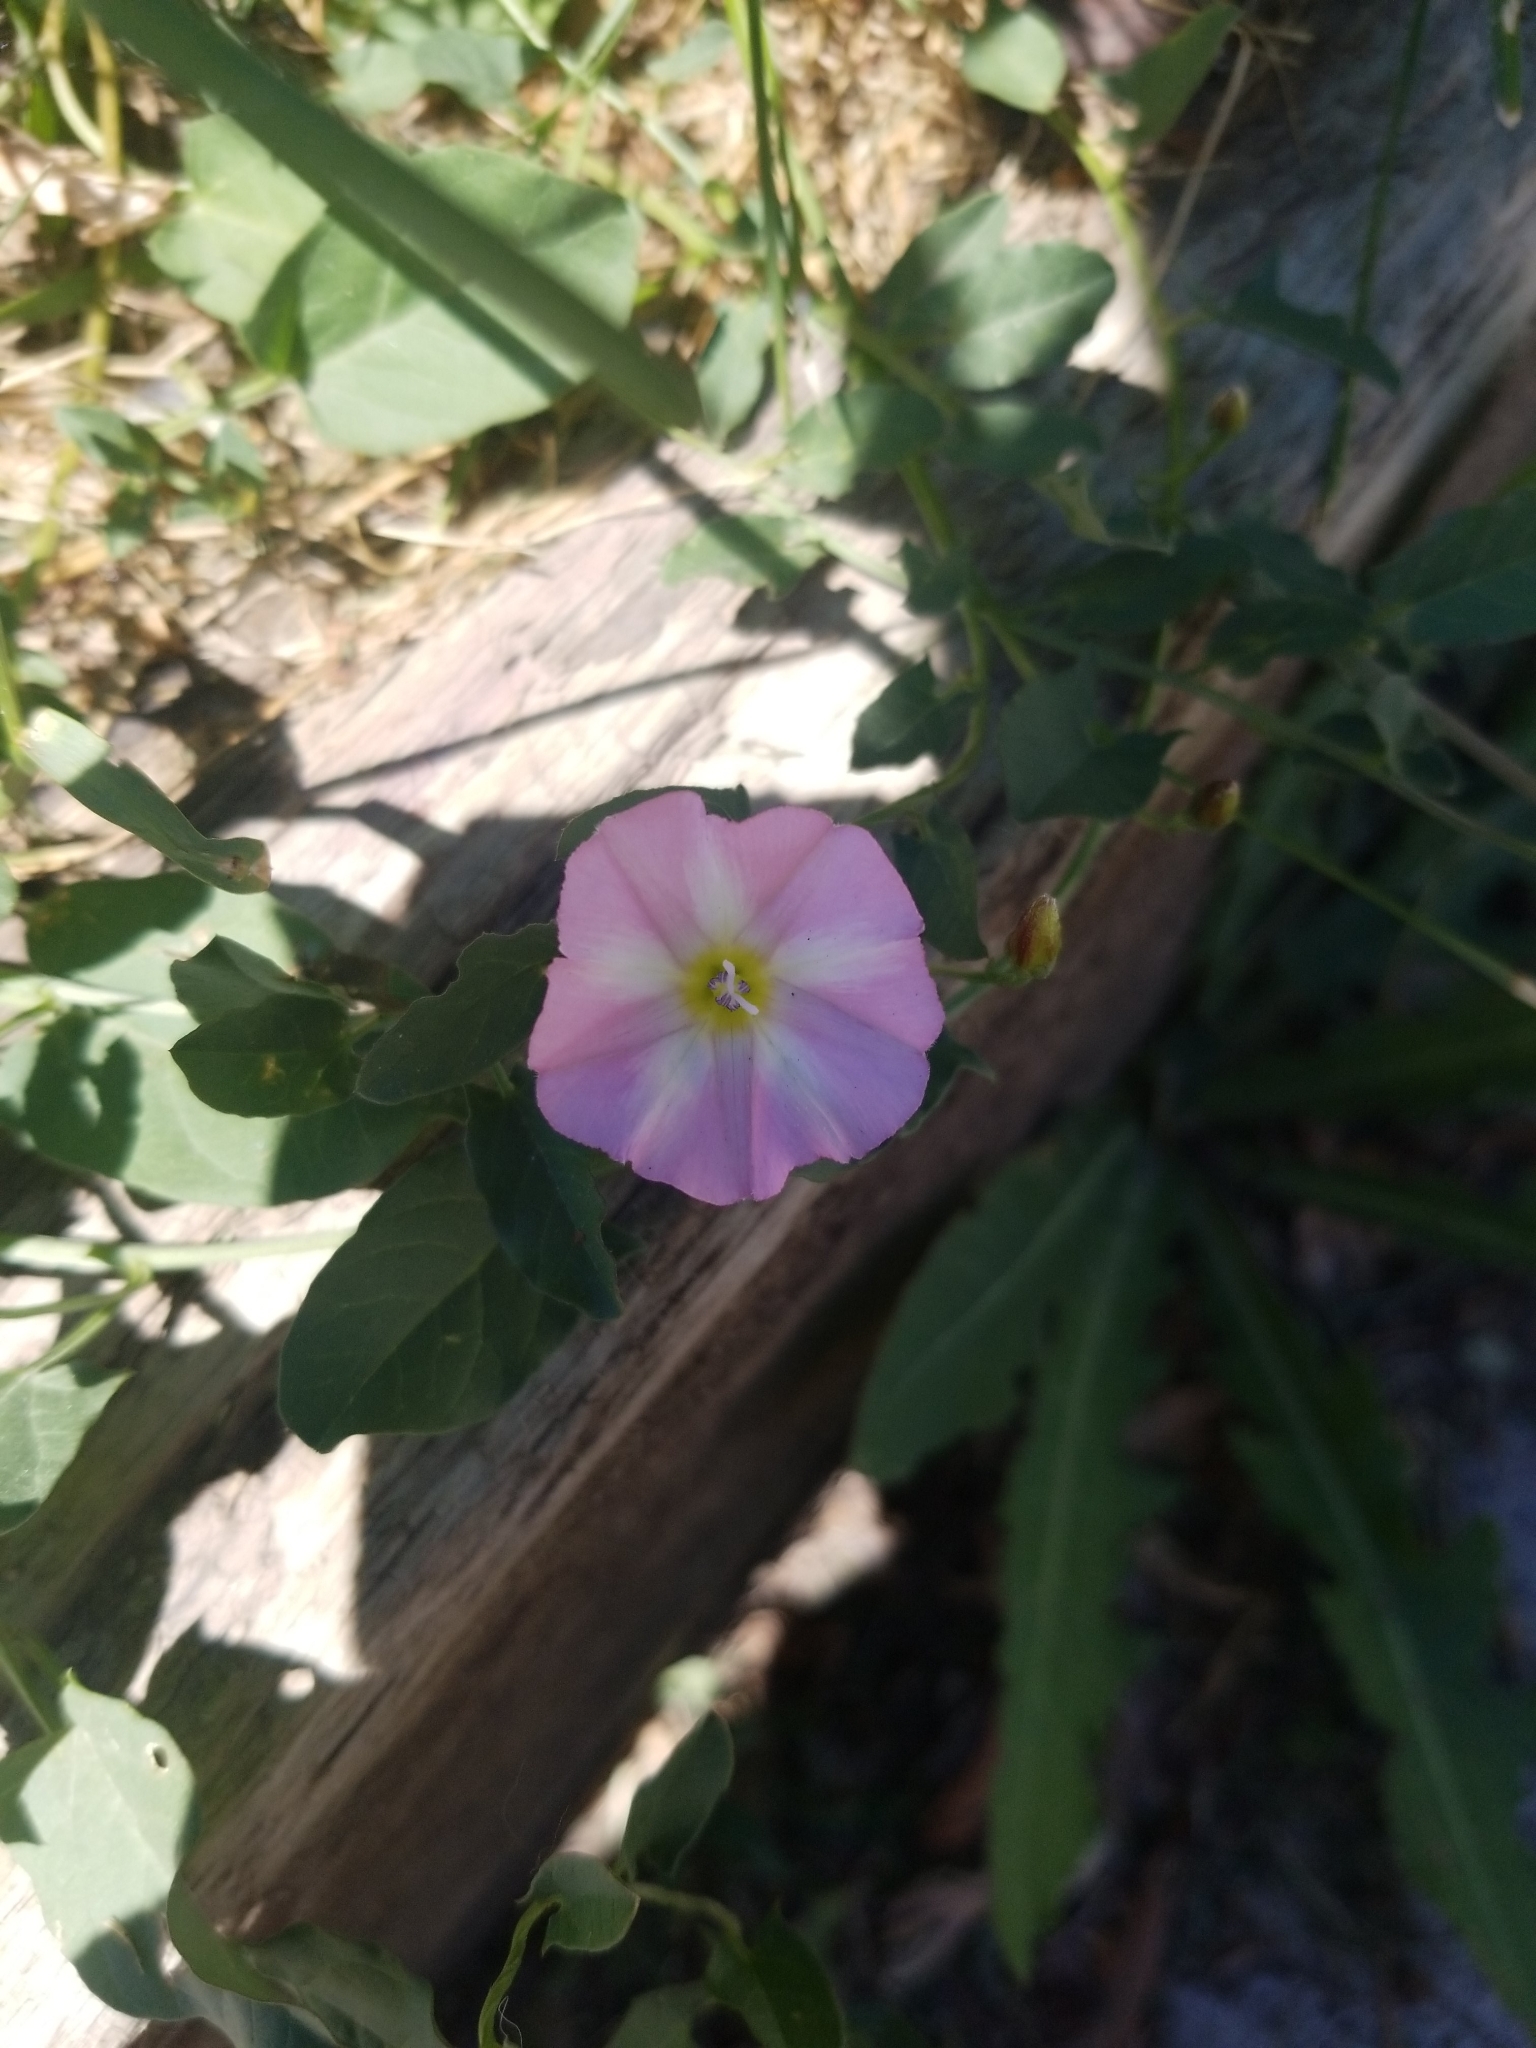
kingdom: Plantae
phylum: Tracheophyta
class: Magnoliopsida
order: Solanales
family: Convolvulaceae
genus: Convolvulus
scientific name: Convolvulus arvensis
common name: Field bindweed
